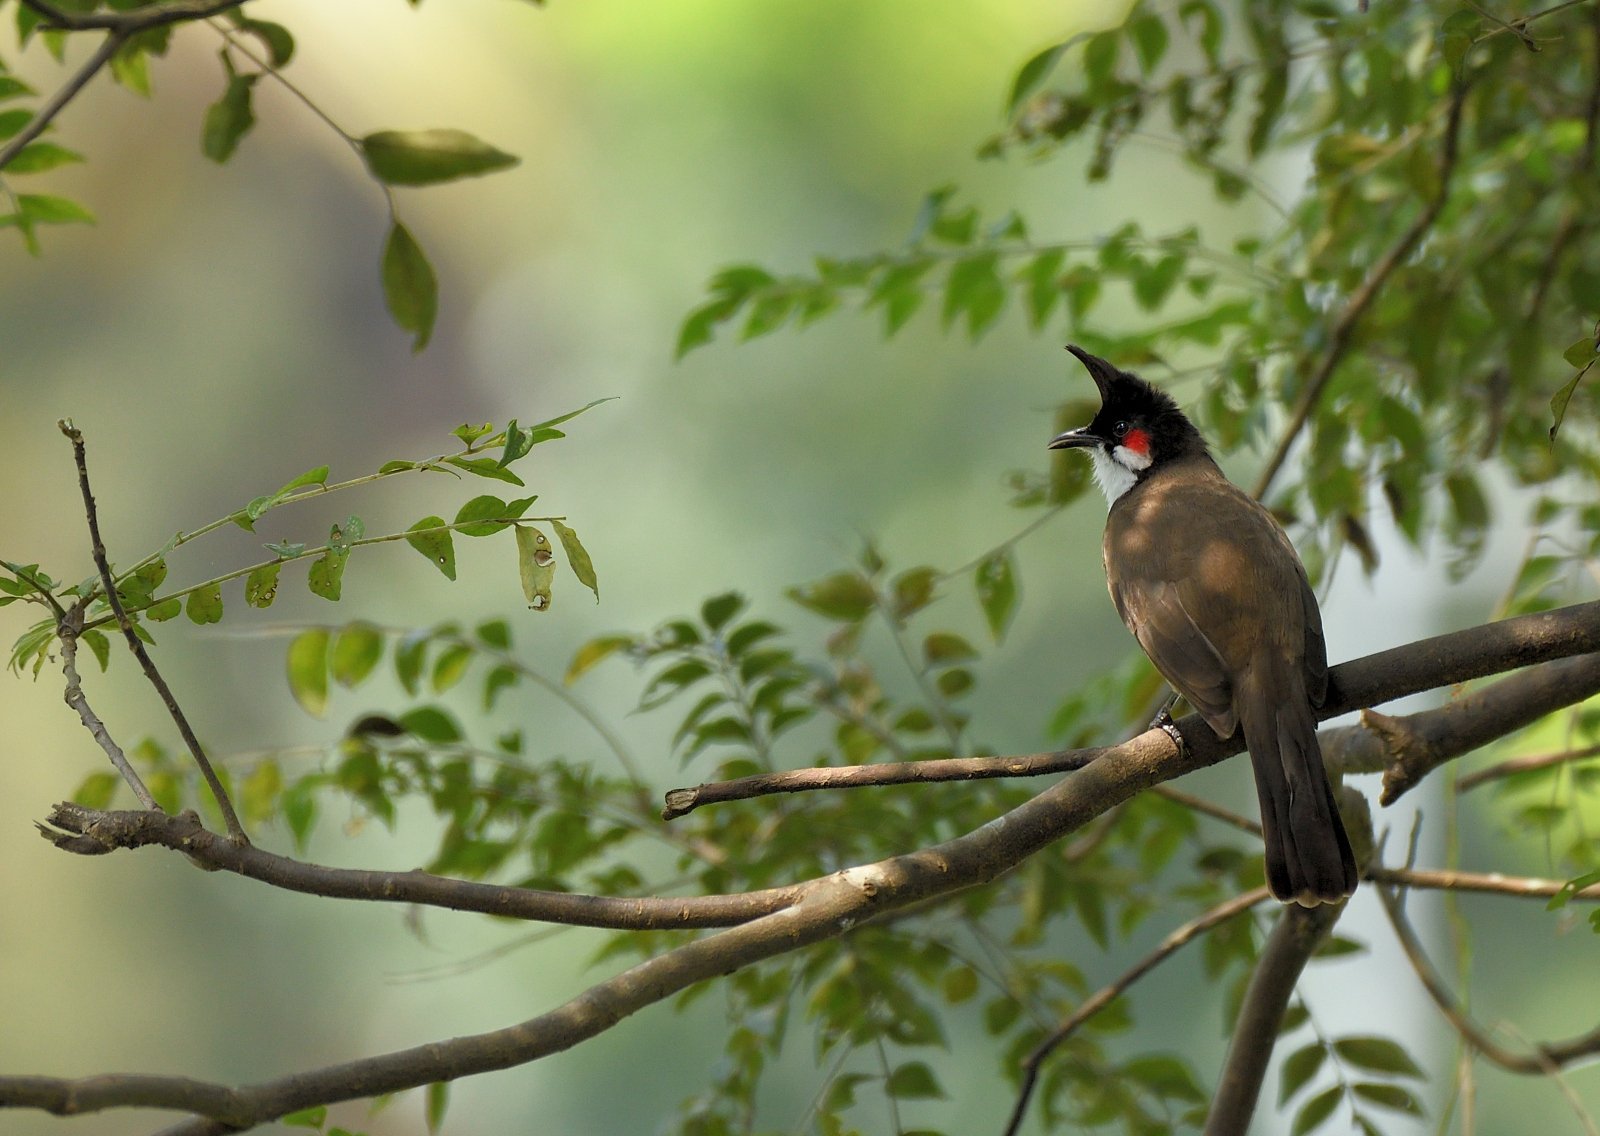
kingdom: Animalia
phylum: Chordata
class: Aves
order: Passeriformes
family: Pycnonotidae
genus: Pycnonotus
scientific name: Pycnonotus jocosus
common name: Red-whiskered bulbul
